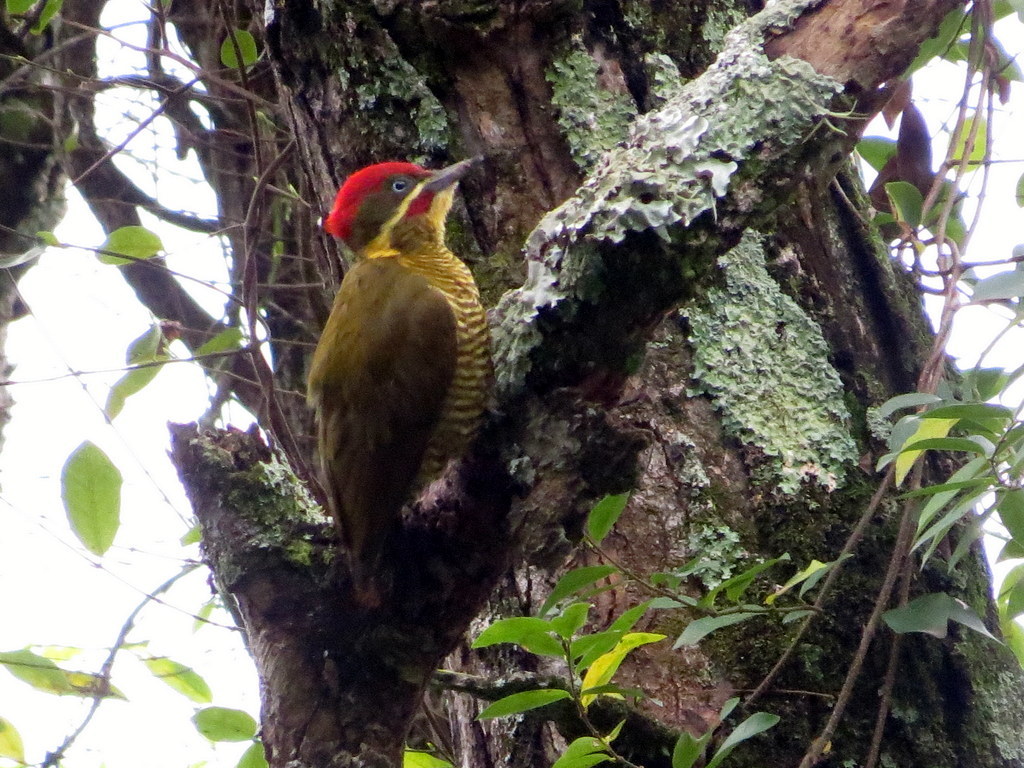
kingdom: Animalia
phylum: Chordata
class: Aves
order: Piciformes
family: Picidae
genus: Piculus
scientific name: Piculus chrysochloros
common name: Golden-green woodpecker
